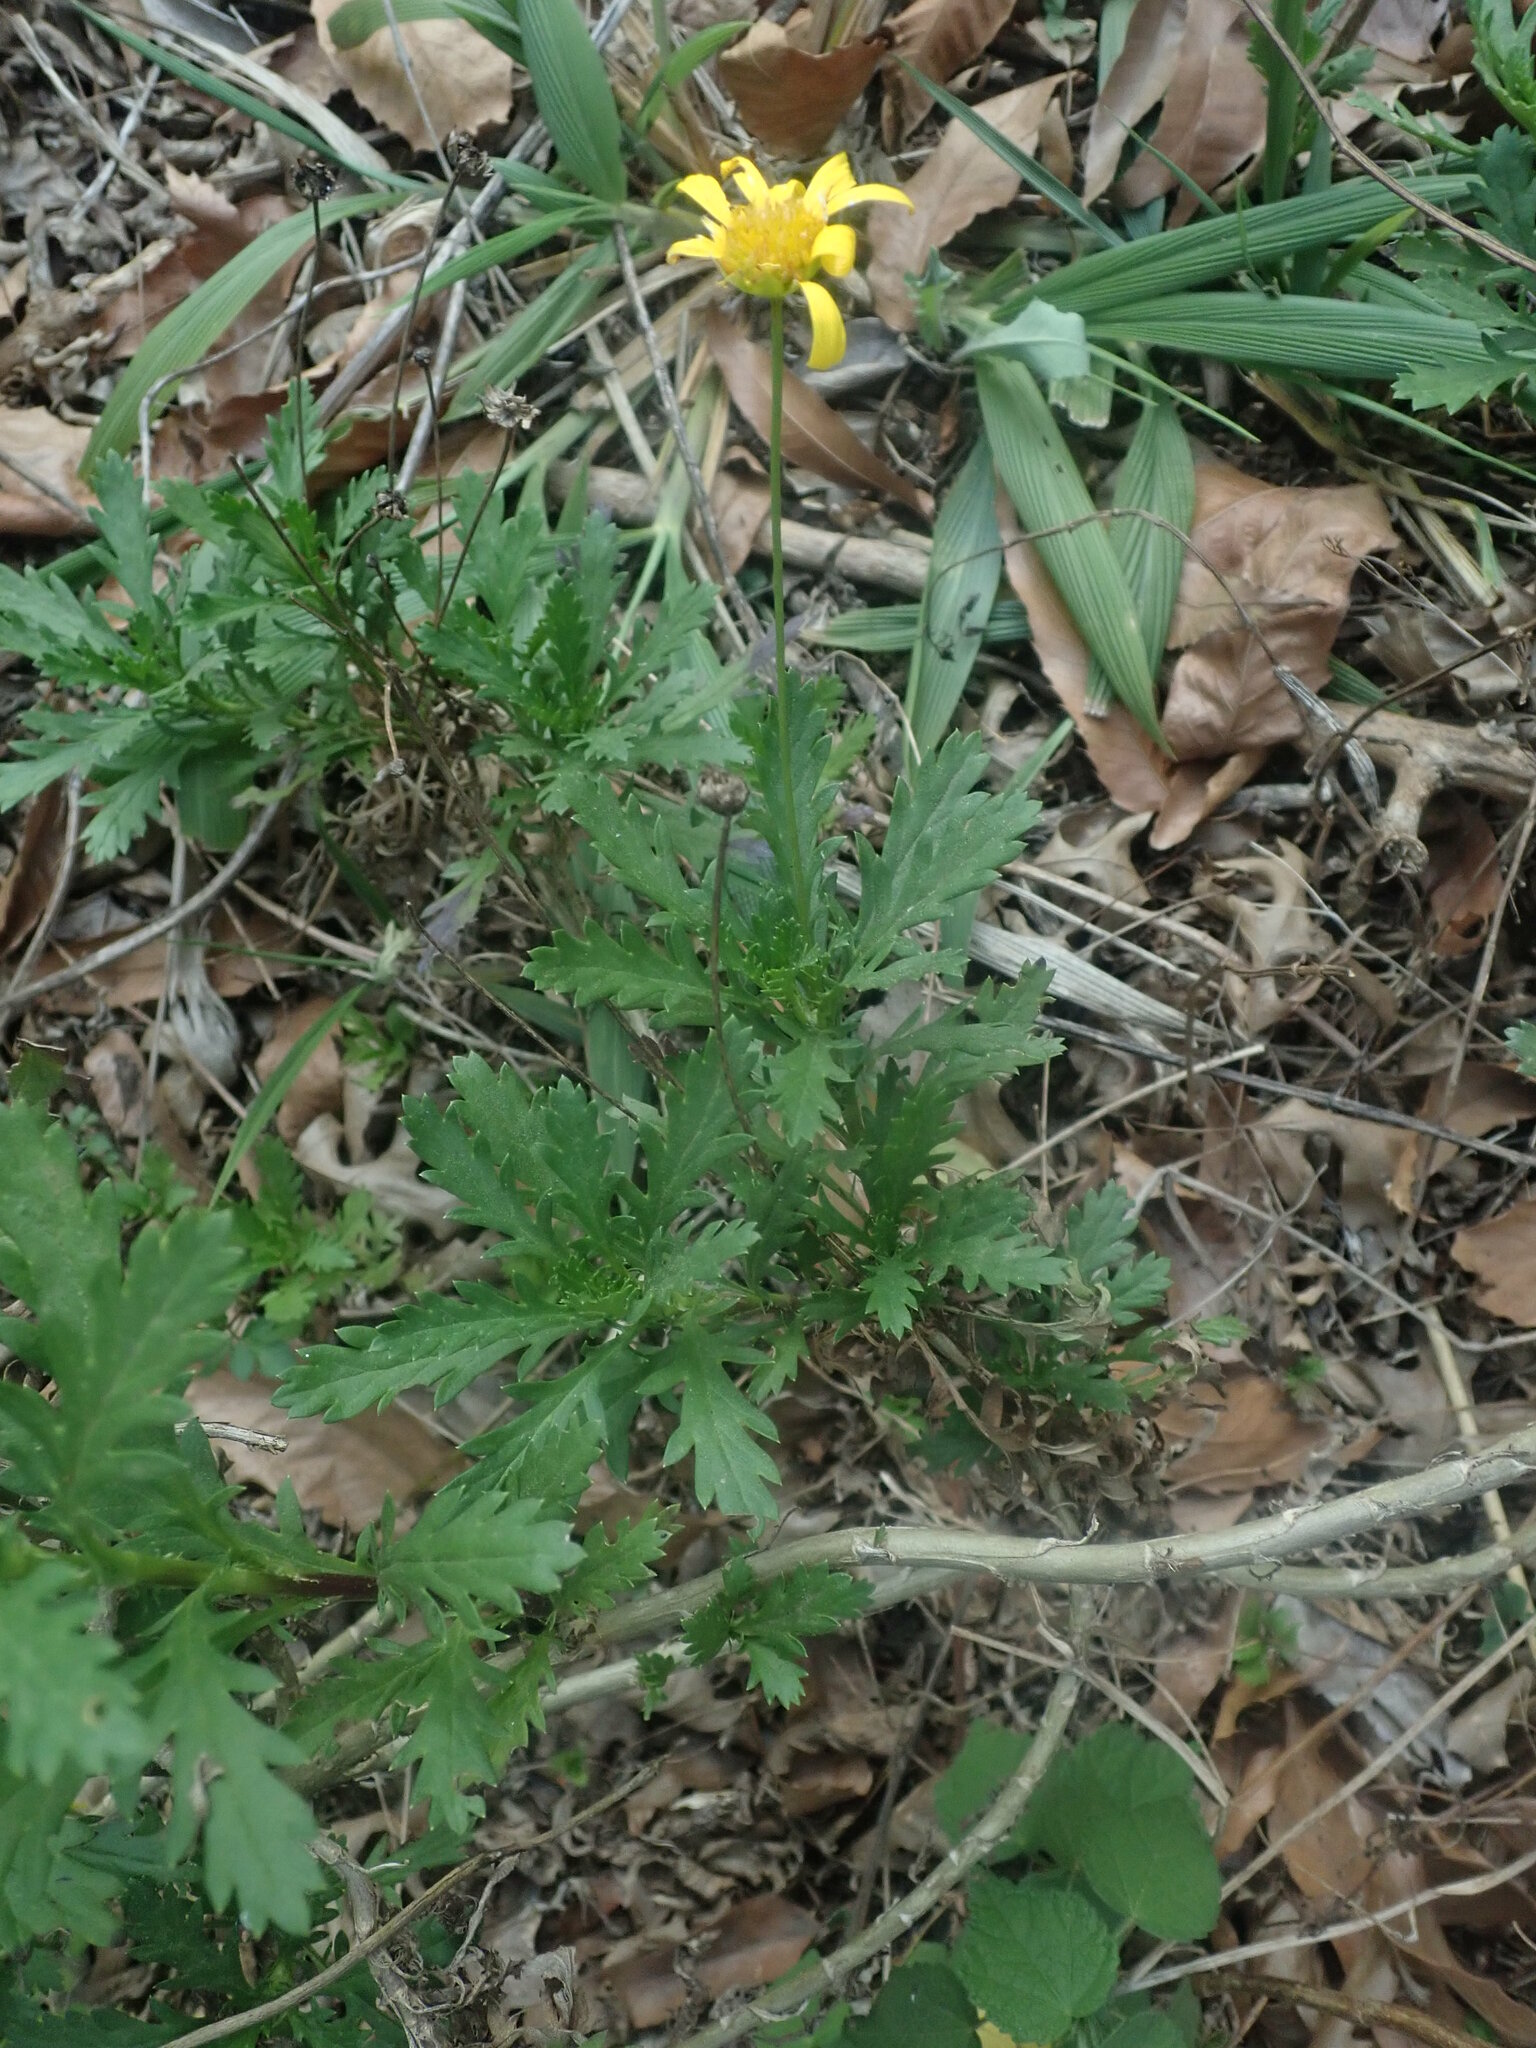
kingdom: Plantae
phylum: Tracheophyta
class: Magnoliopsida
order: Asterales
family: Asteraceae
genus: Euryops
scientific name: Euryops chrysanthemoides
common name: Bull's eye
